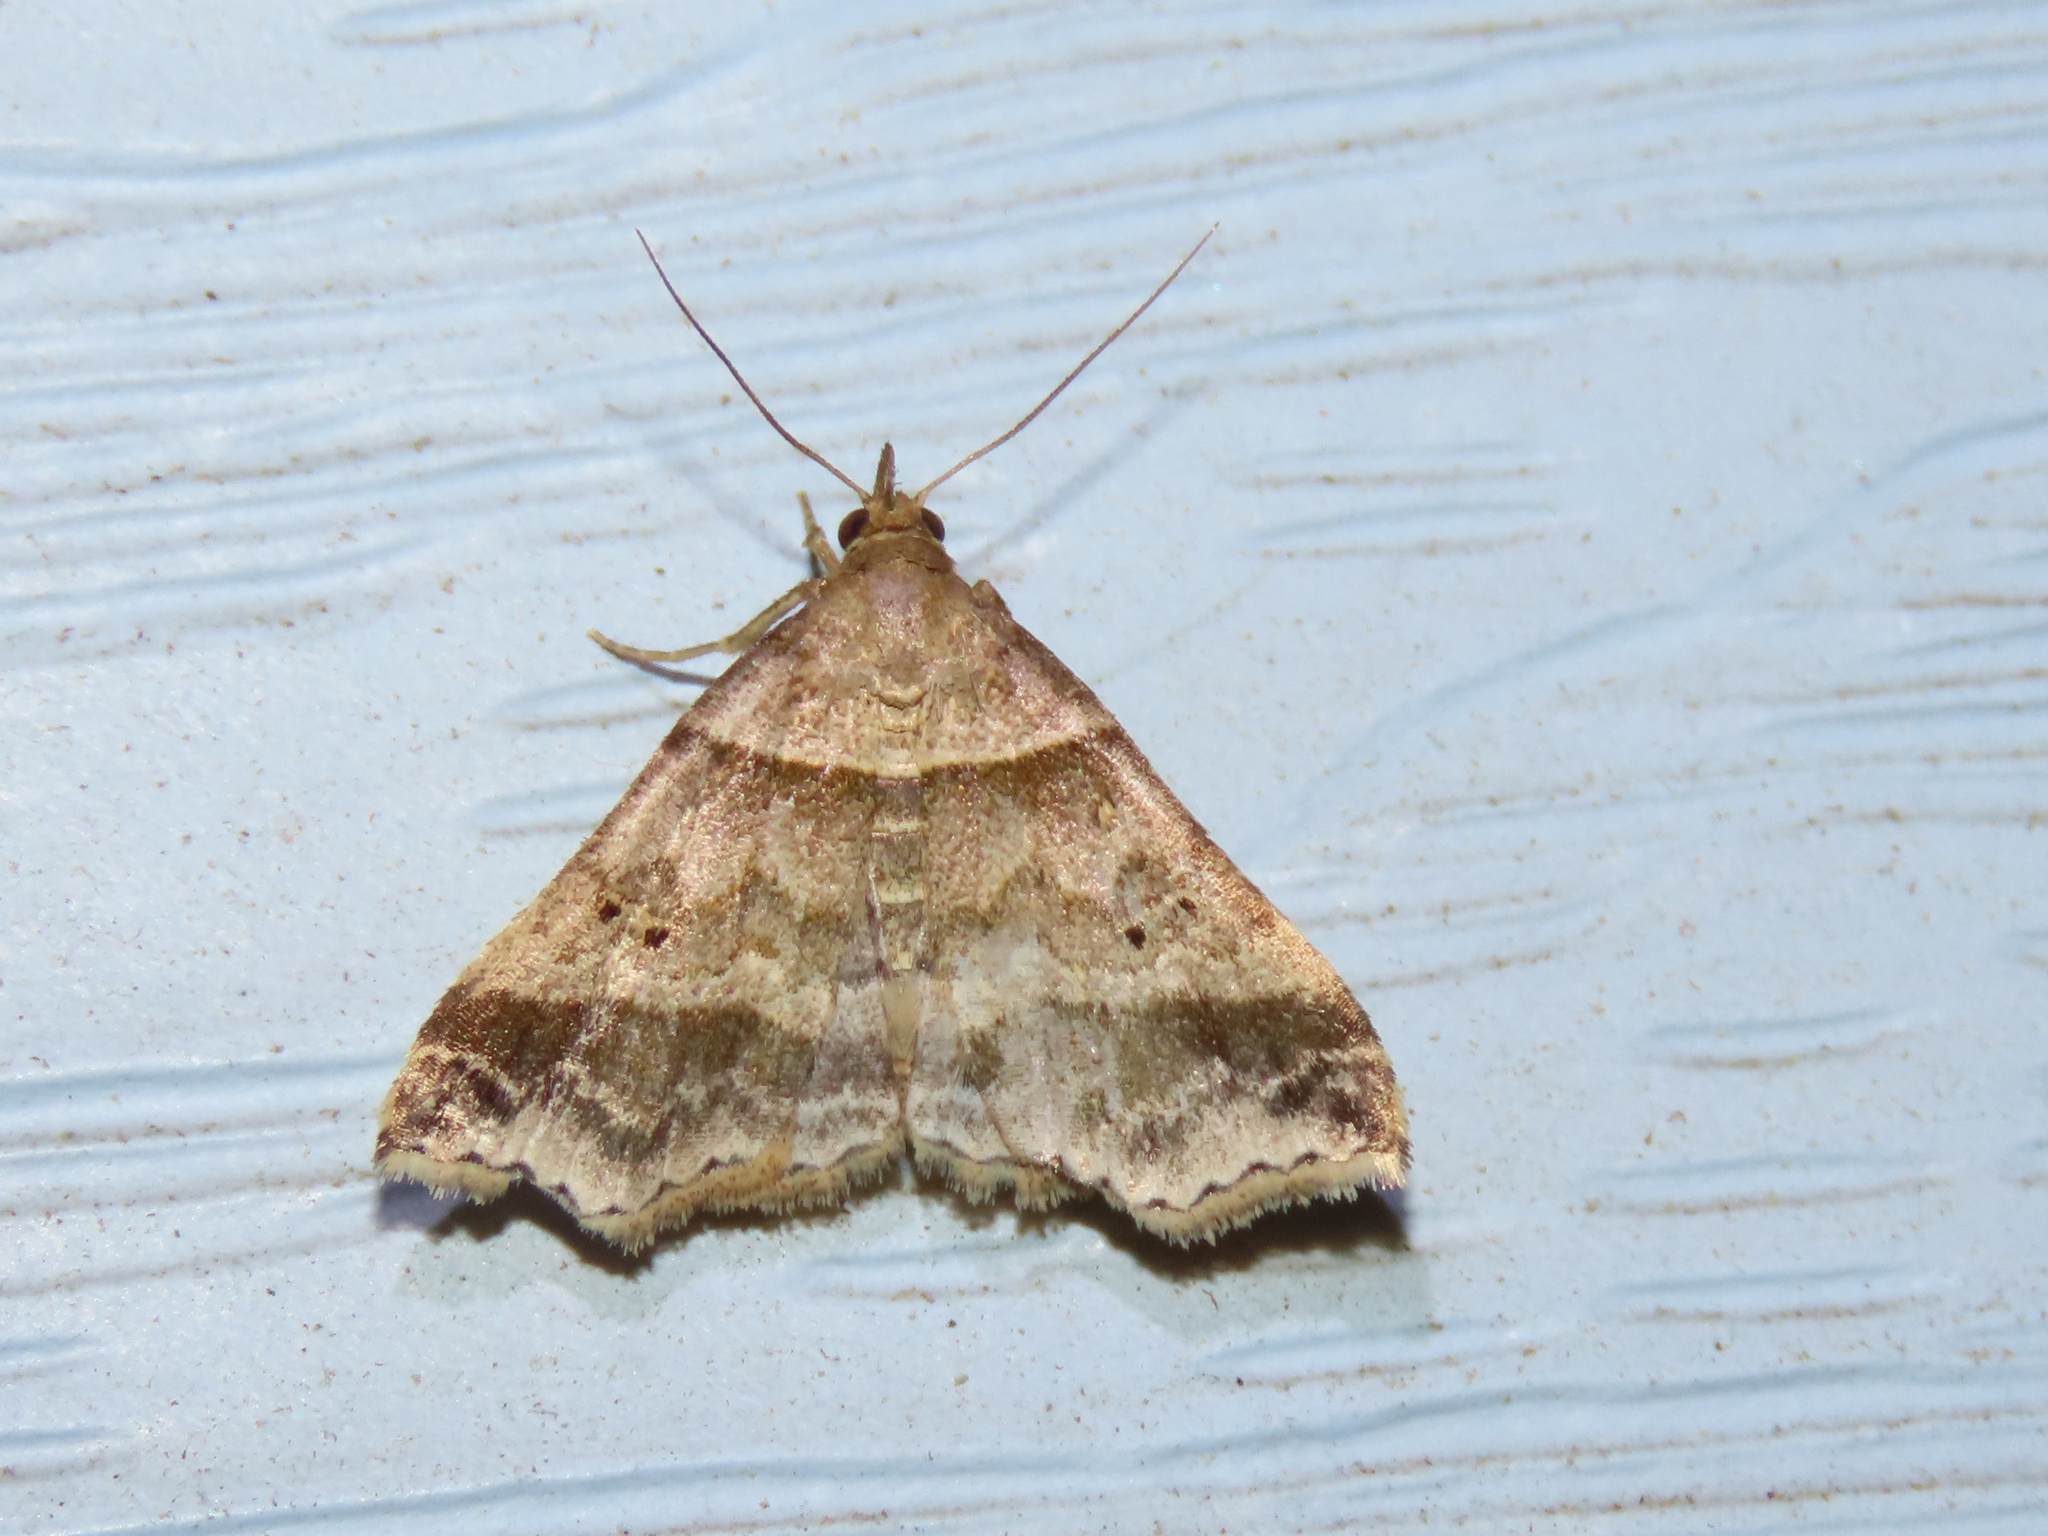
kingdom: Animalia
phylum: Arthropoda
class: Insecta
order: Lepidoptera
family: Erebidae
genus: Phaeolita
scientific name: Phaeolita pyramusalis
